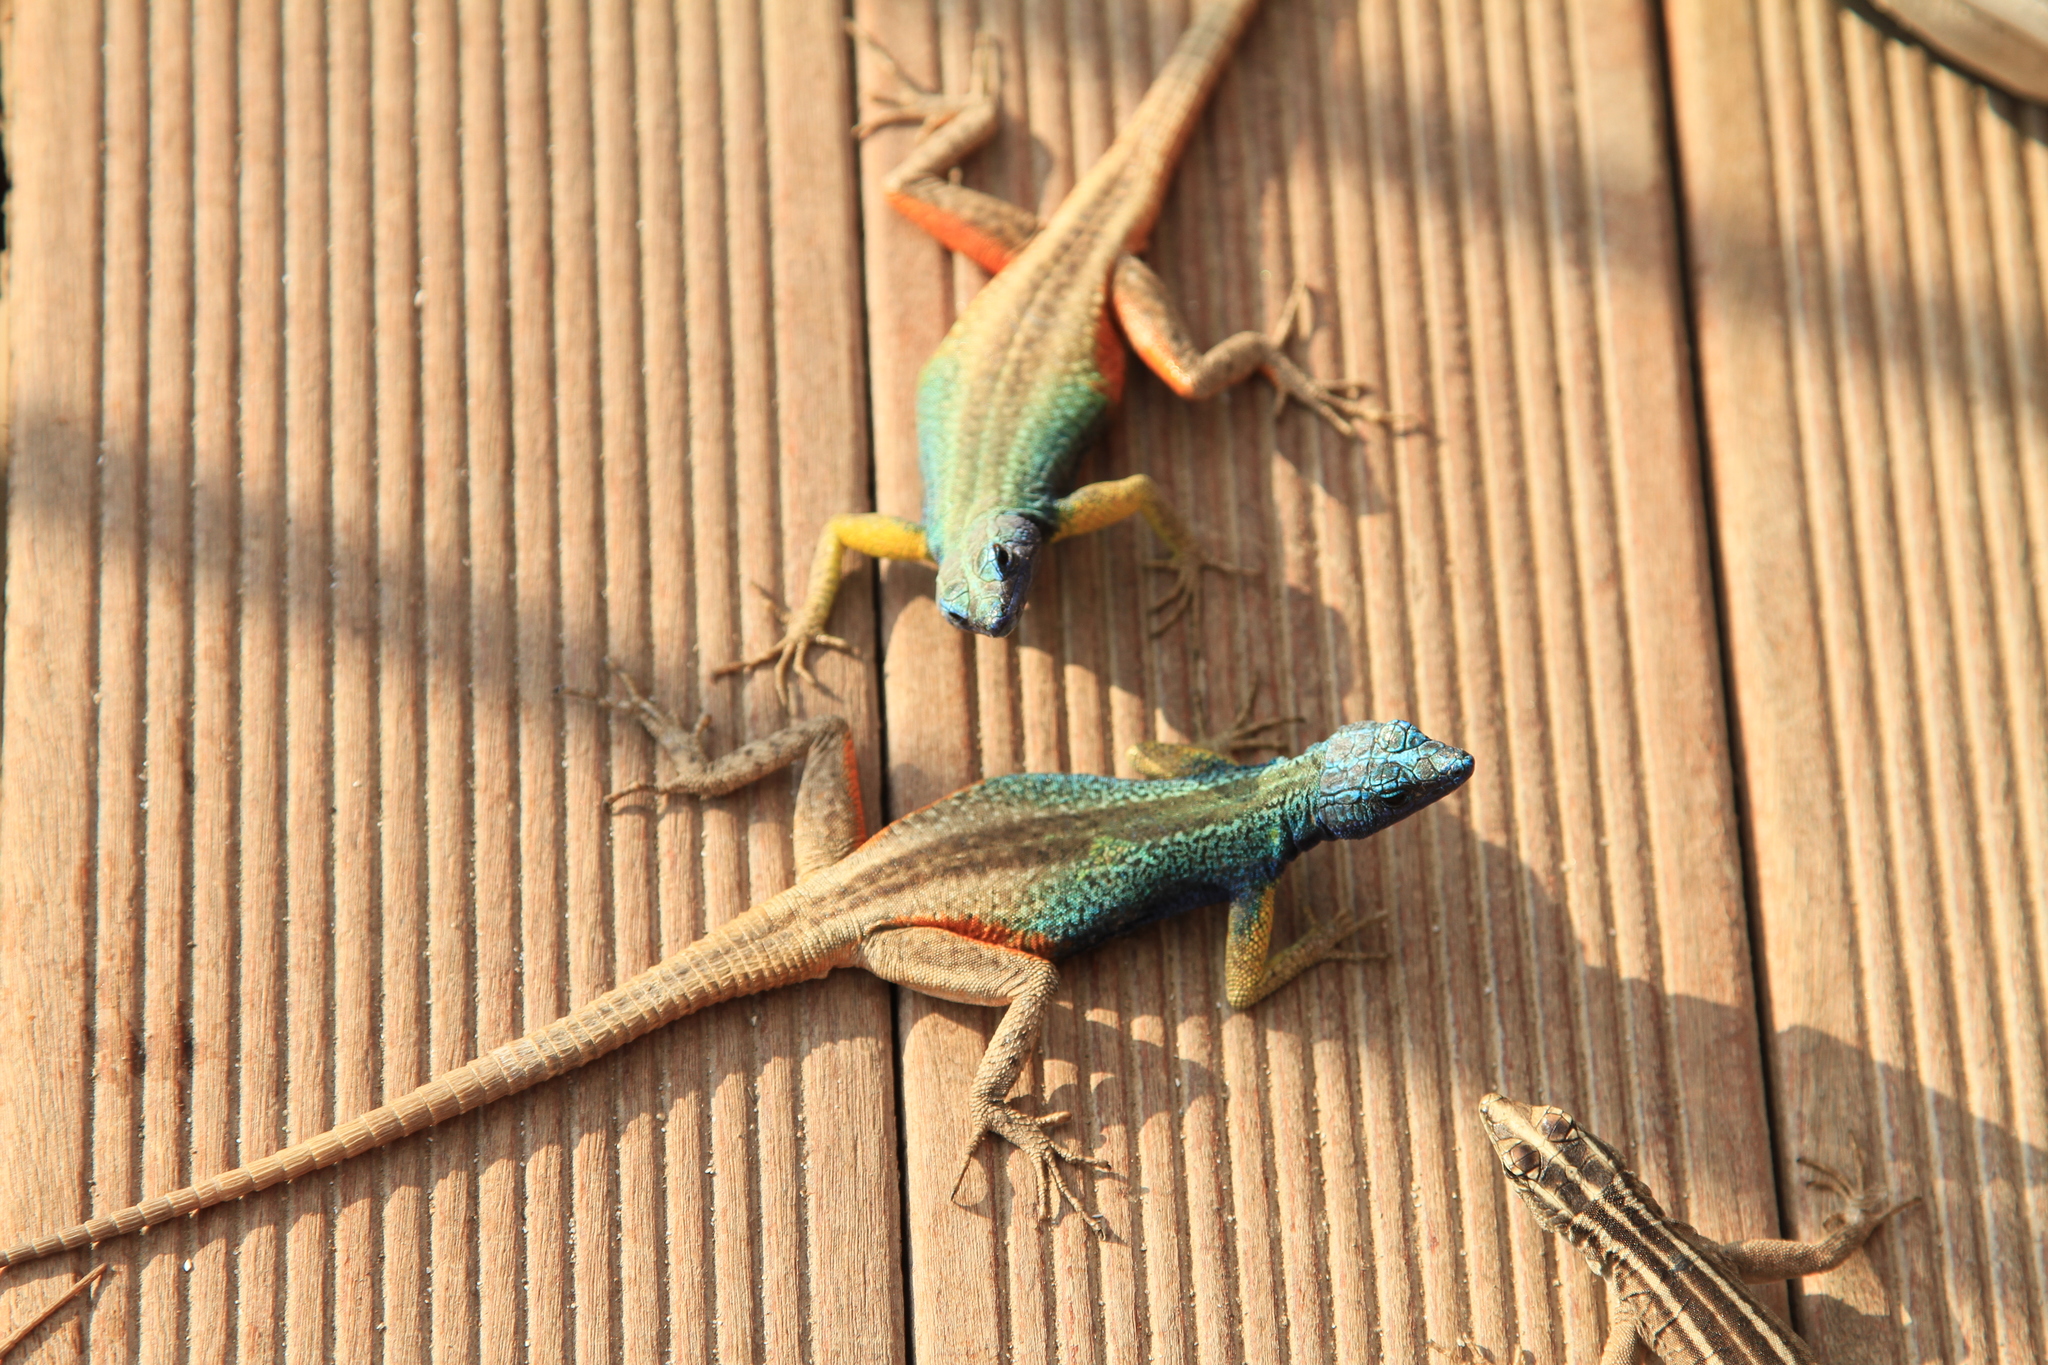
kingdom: Animalia
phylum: Chordata
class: Squamata
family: Cordylidae
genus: Platysaurus
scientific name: Platysaurus broadleyi
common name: Augrabies flat lizard
